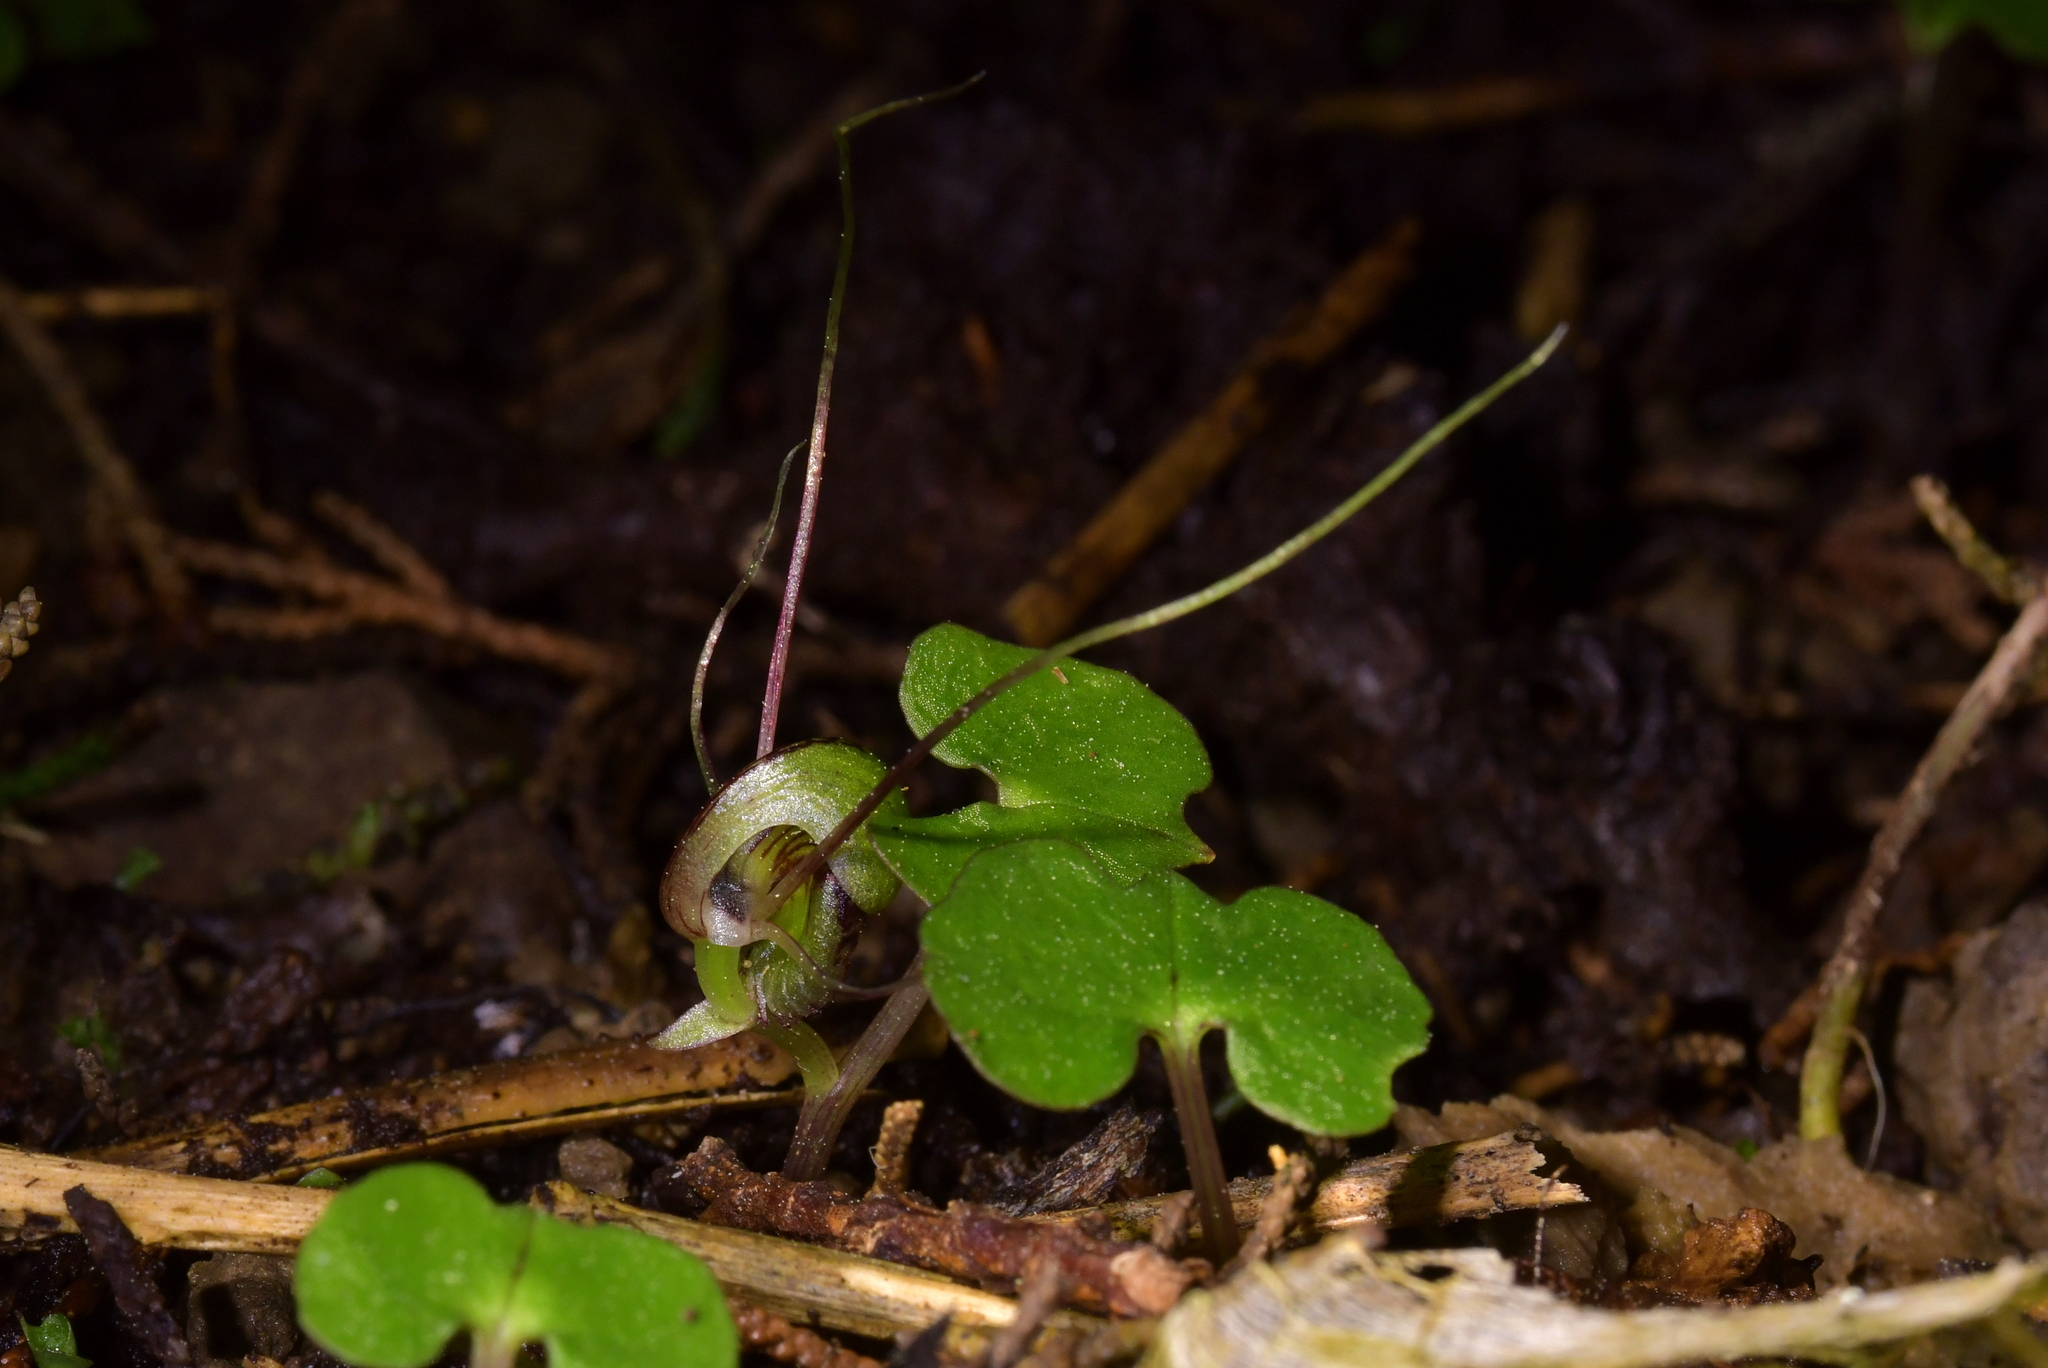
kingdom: Plantae
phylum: Tracheophyta
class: Liliopsida
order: Asparagales
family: Orchidaceae
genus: Corybas
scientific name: Corybas vitreus
